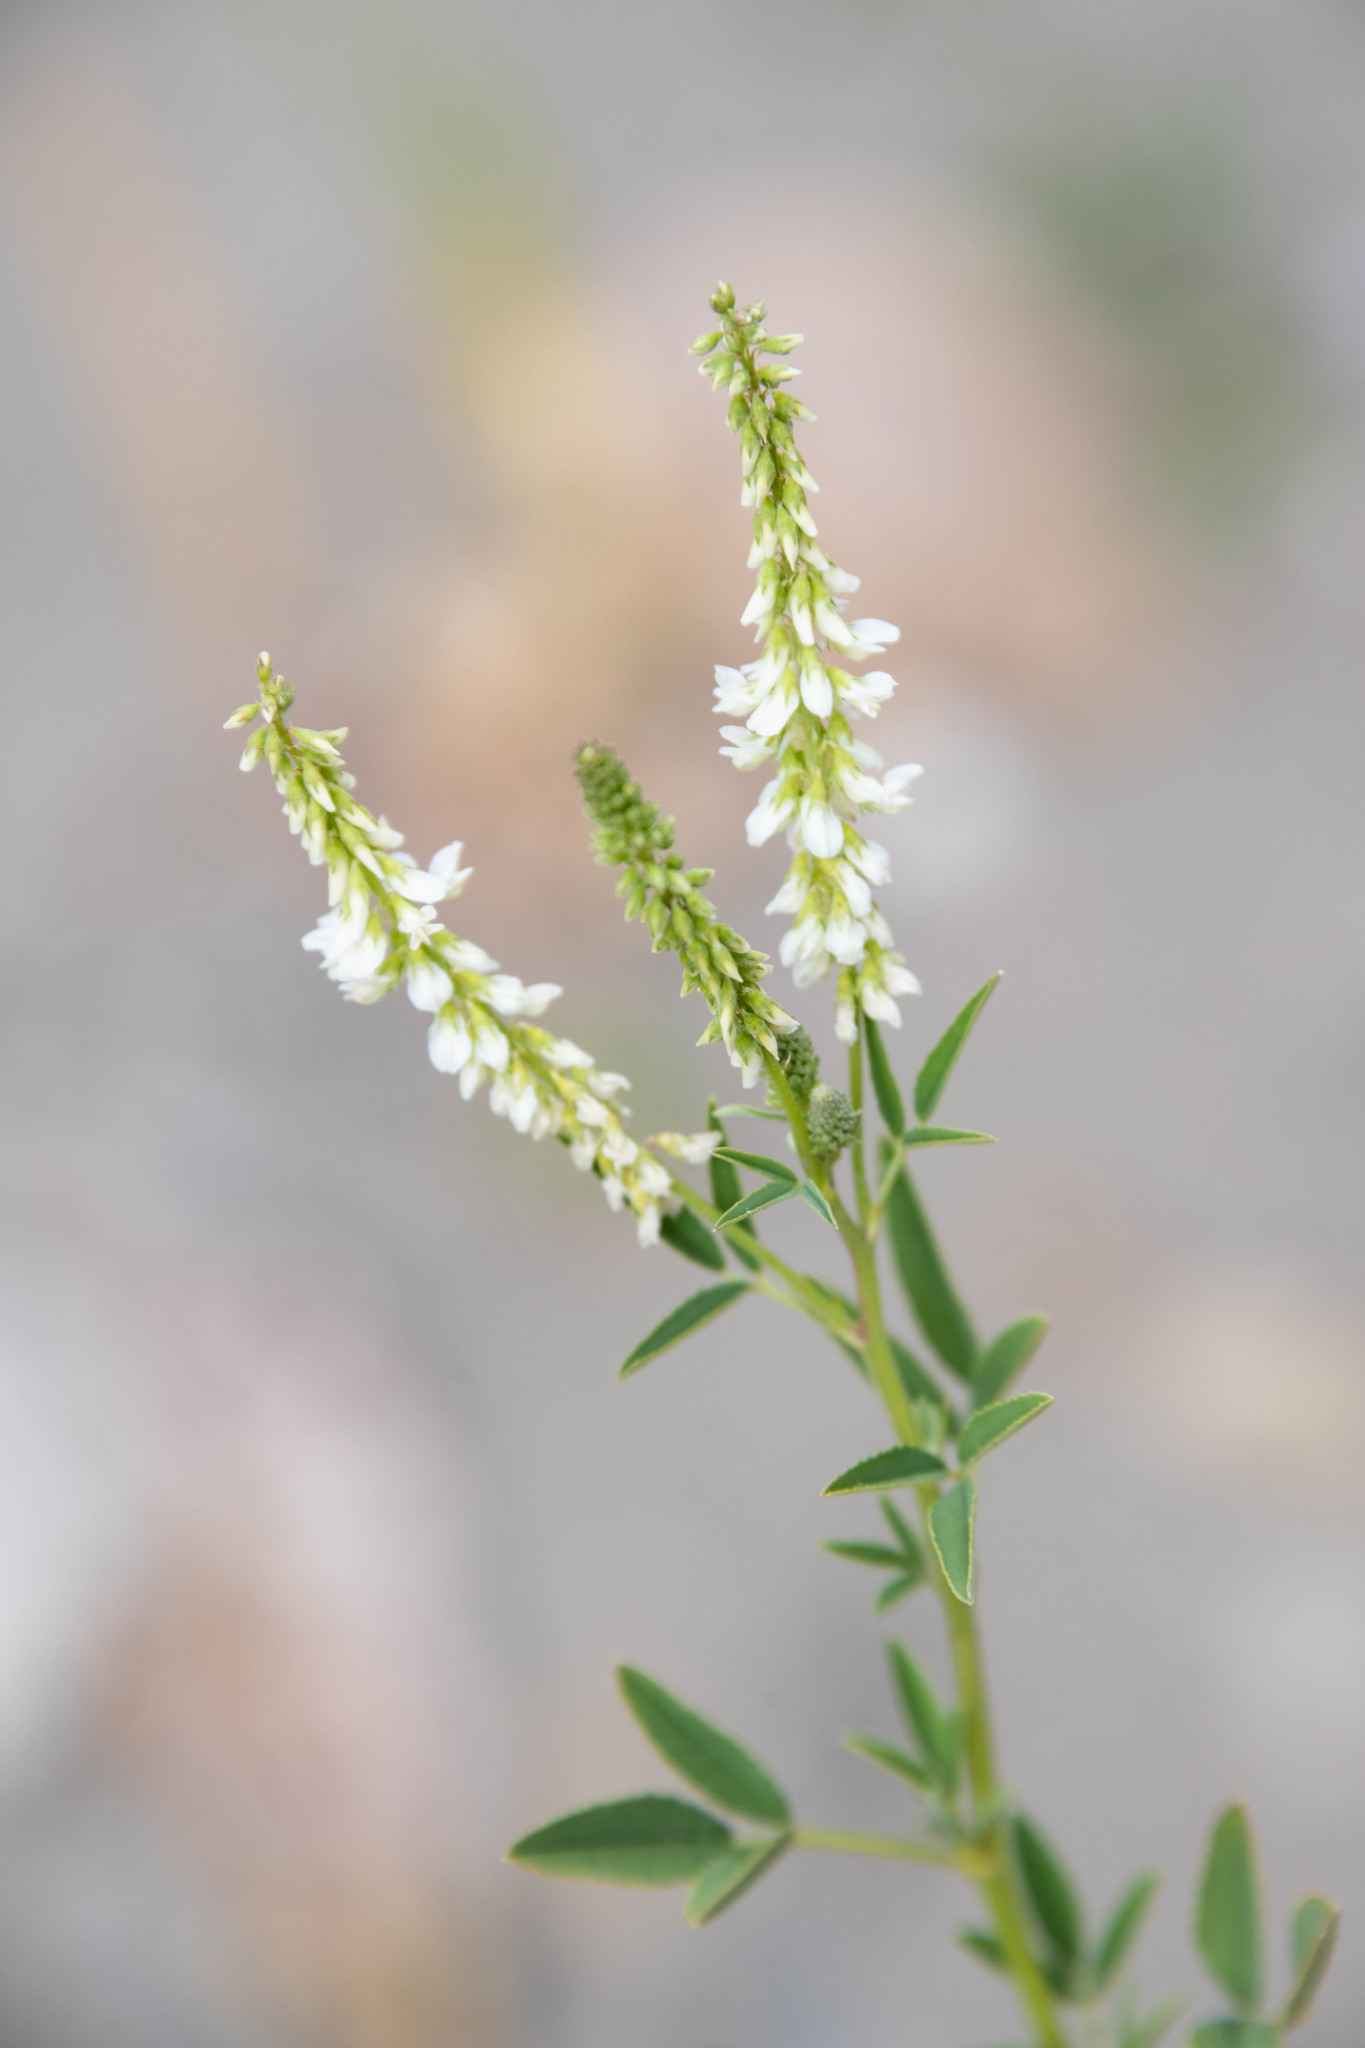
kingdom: Plantae
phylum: Tracheophyta
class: Magnoliopsida
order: Fabales
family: Fabaceae
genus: Melilotus
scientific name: Melilotus albus
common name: White melilot
